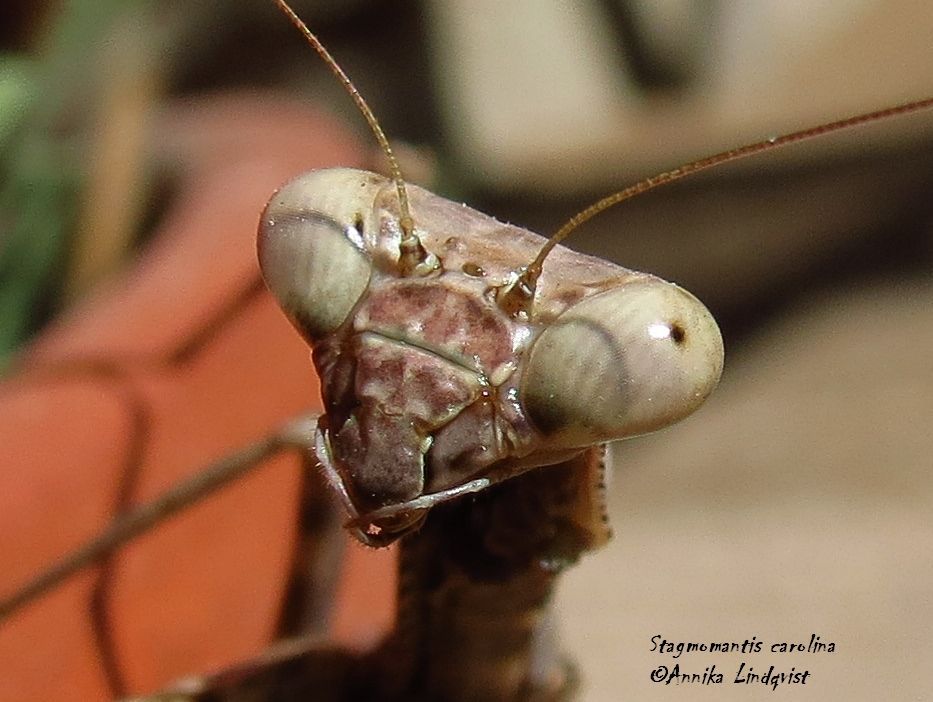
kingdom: Animalia
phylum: Arthropoda
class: Insecta
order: Mantodea
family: Mantidae
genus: Stagmomantis
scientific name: Stagmomantis carolina
